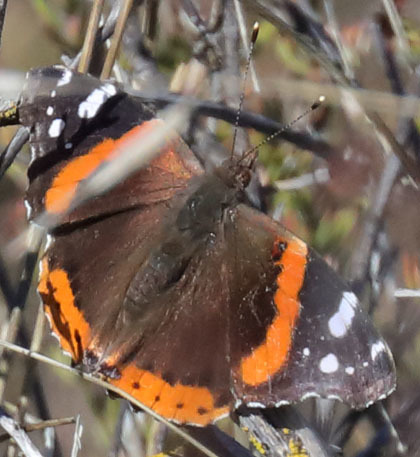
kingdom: Animalia
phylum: Arthropoda
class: Insecta
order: Lepidoptera
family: Nymphalidae
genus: Vanessa
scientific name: Vanessa atalanta
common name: Red admiral
